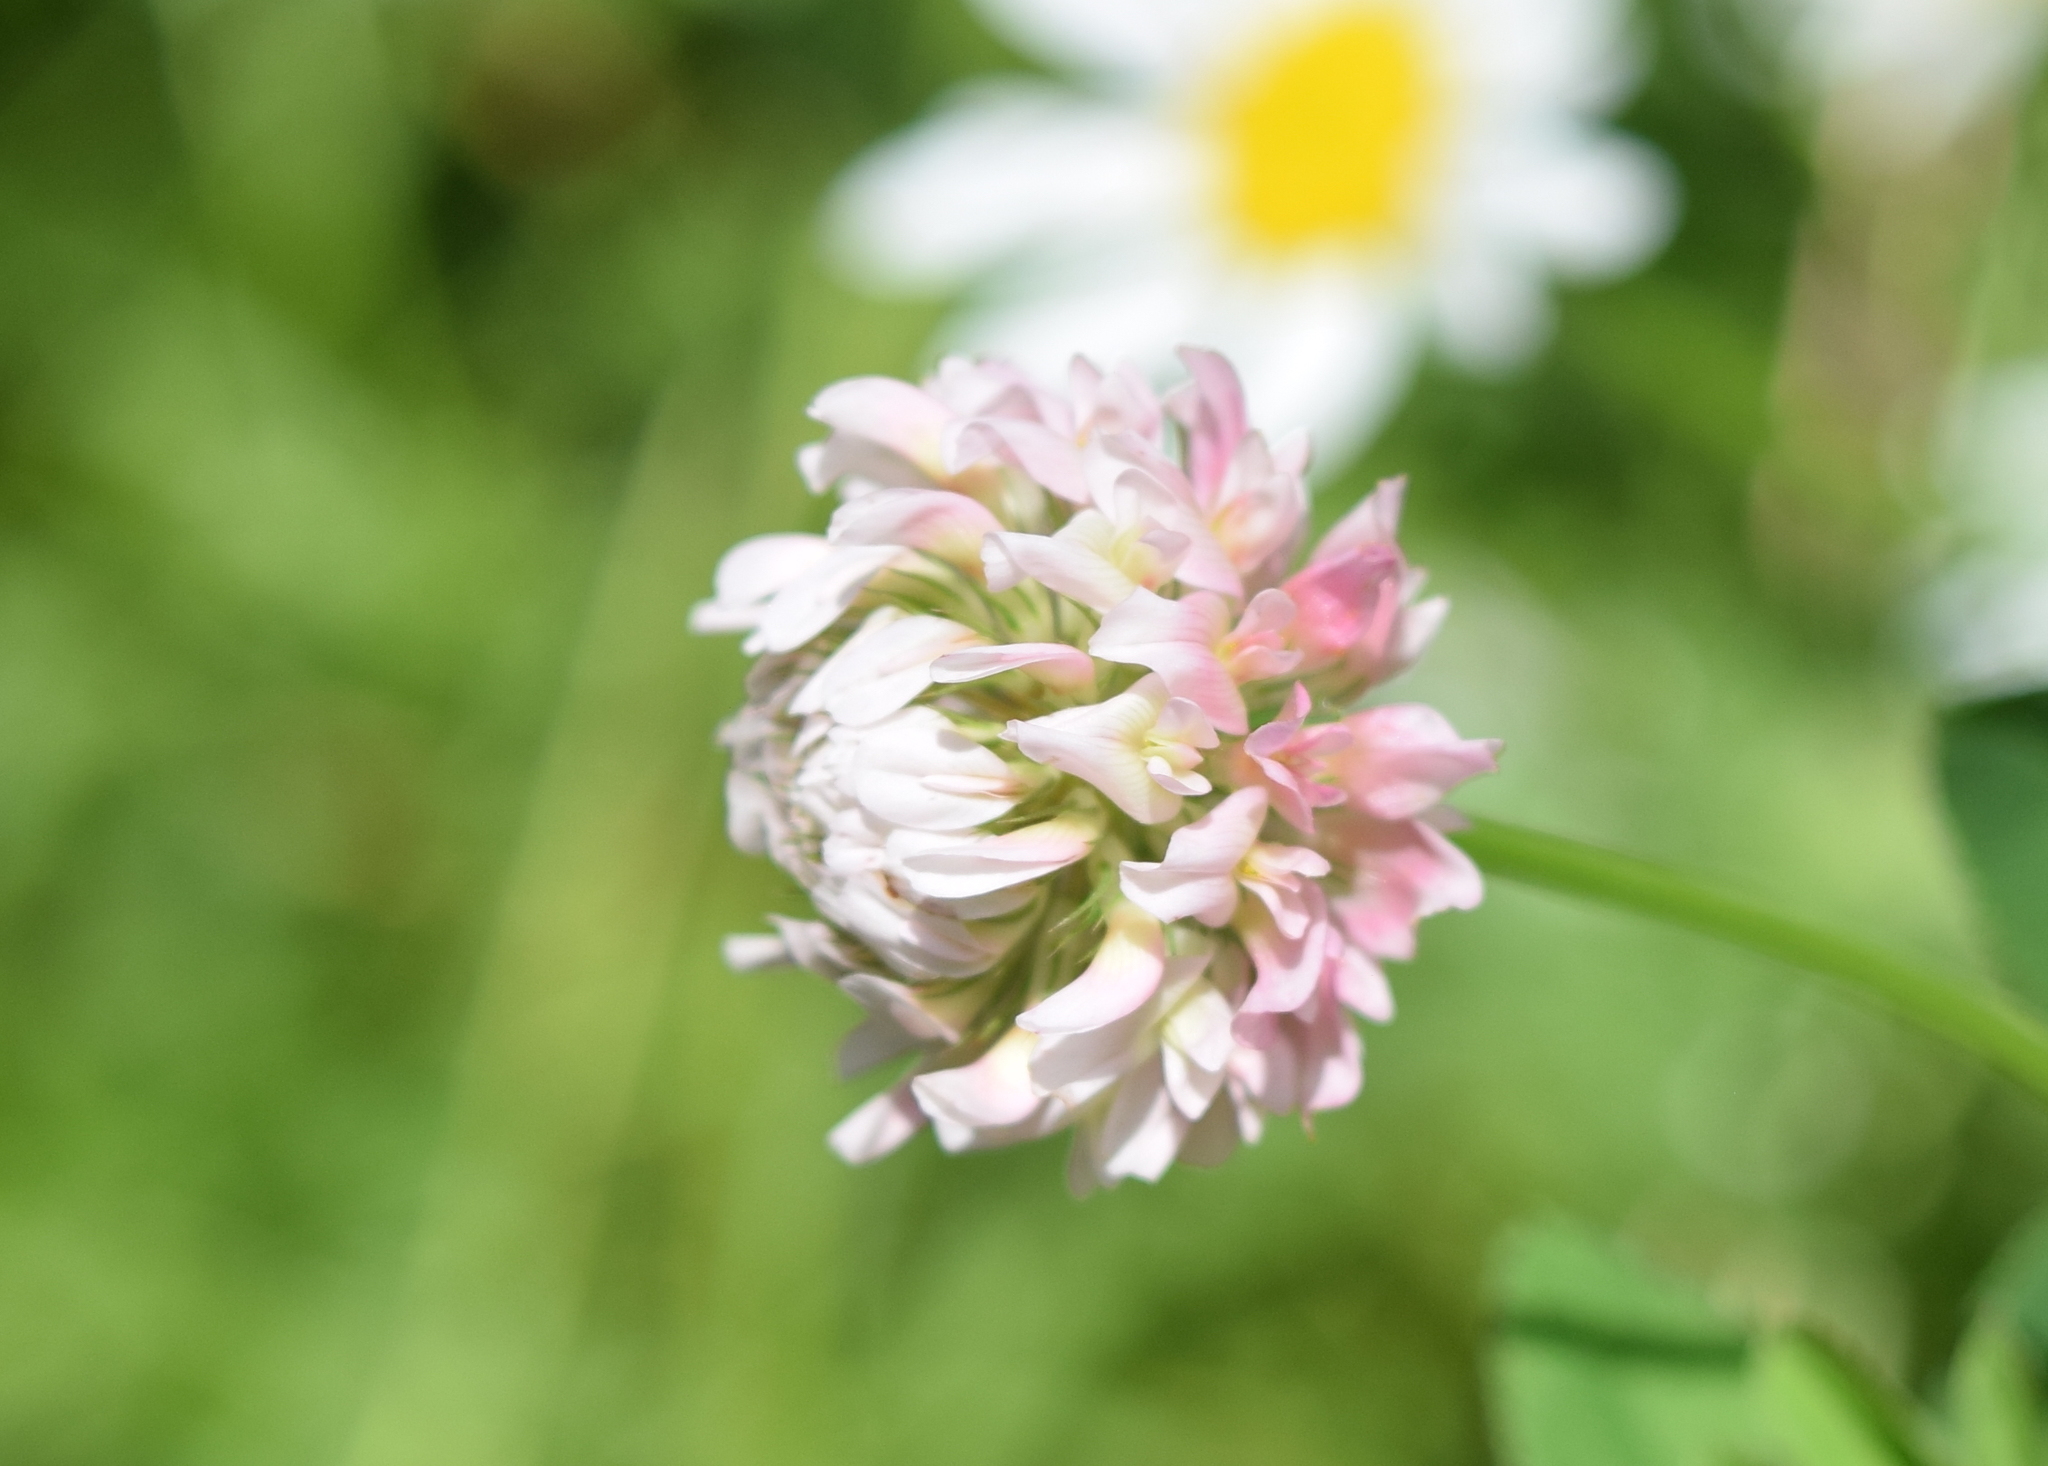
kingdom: Plantae
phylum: Tracheophyta
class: Magnoliopsida
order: Fabales
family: Fabaceae
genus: Trifolium
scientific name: Trifolium hybridum
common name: Alsike clover
